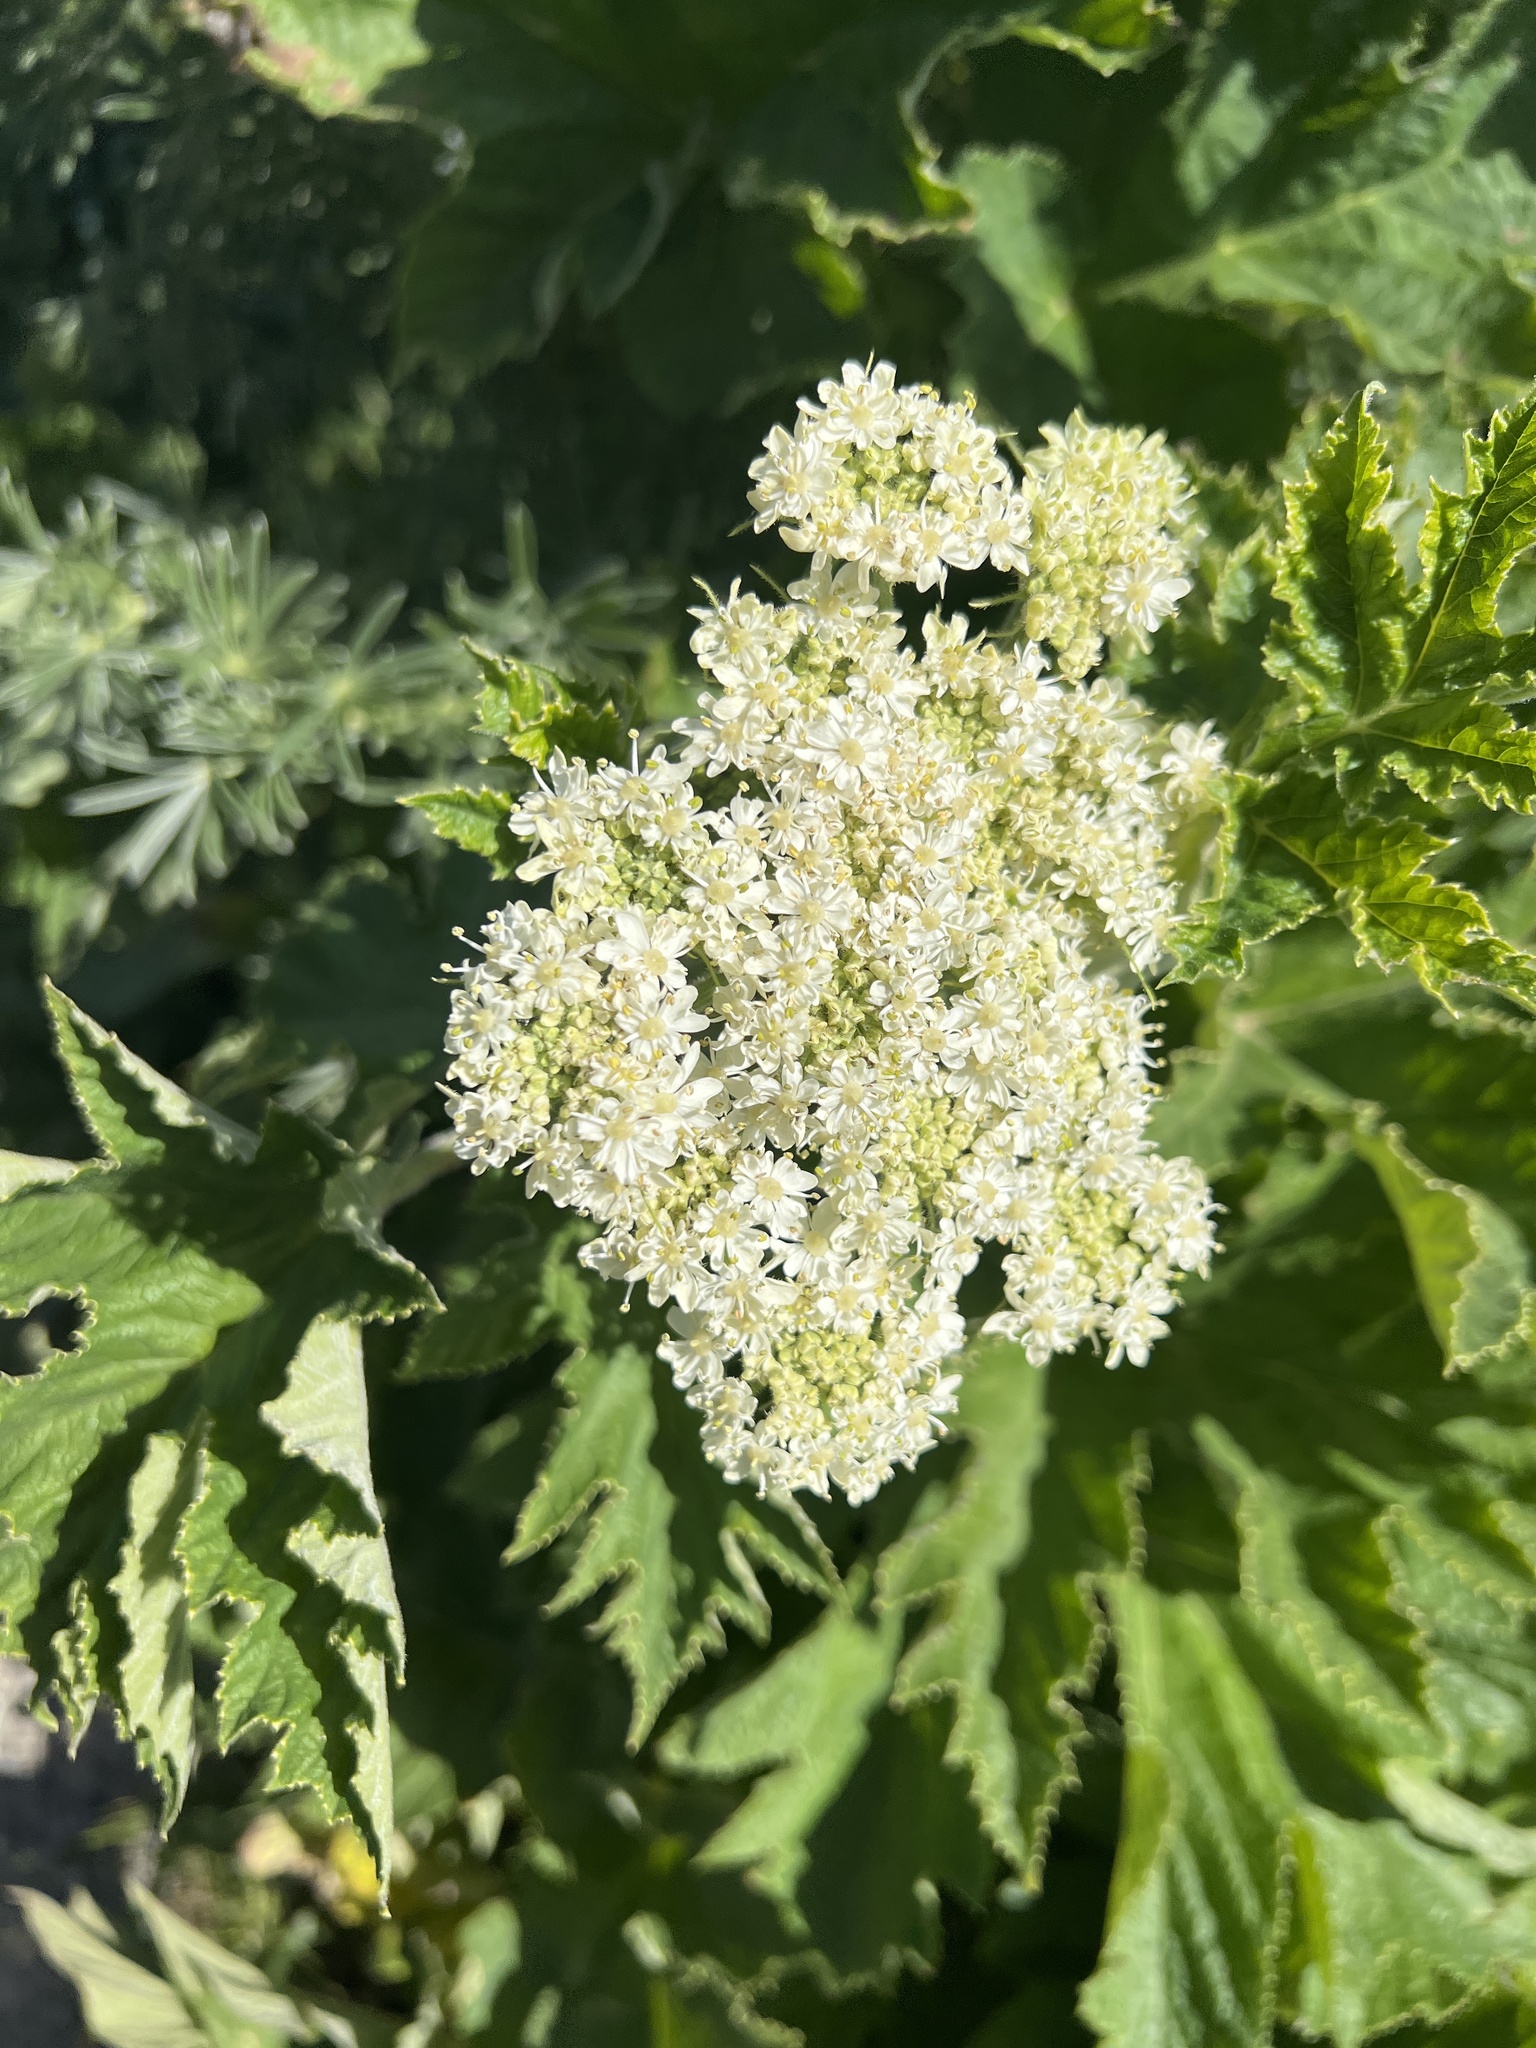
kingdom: Plantae
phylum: Tracheophyta
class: Magnoliopsida
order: Apiales
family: Apiaceae
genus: Heracleum
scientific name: Heracleum maximum
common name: American cow parsnip
